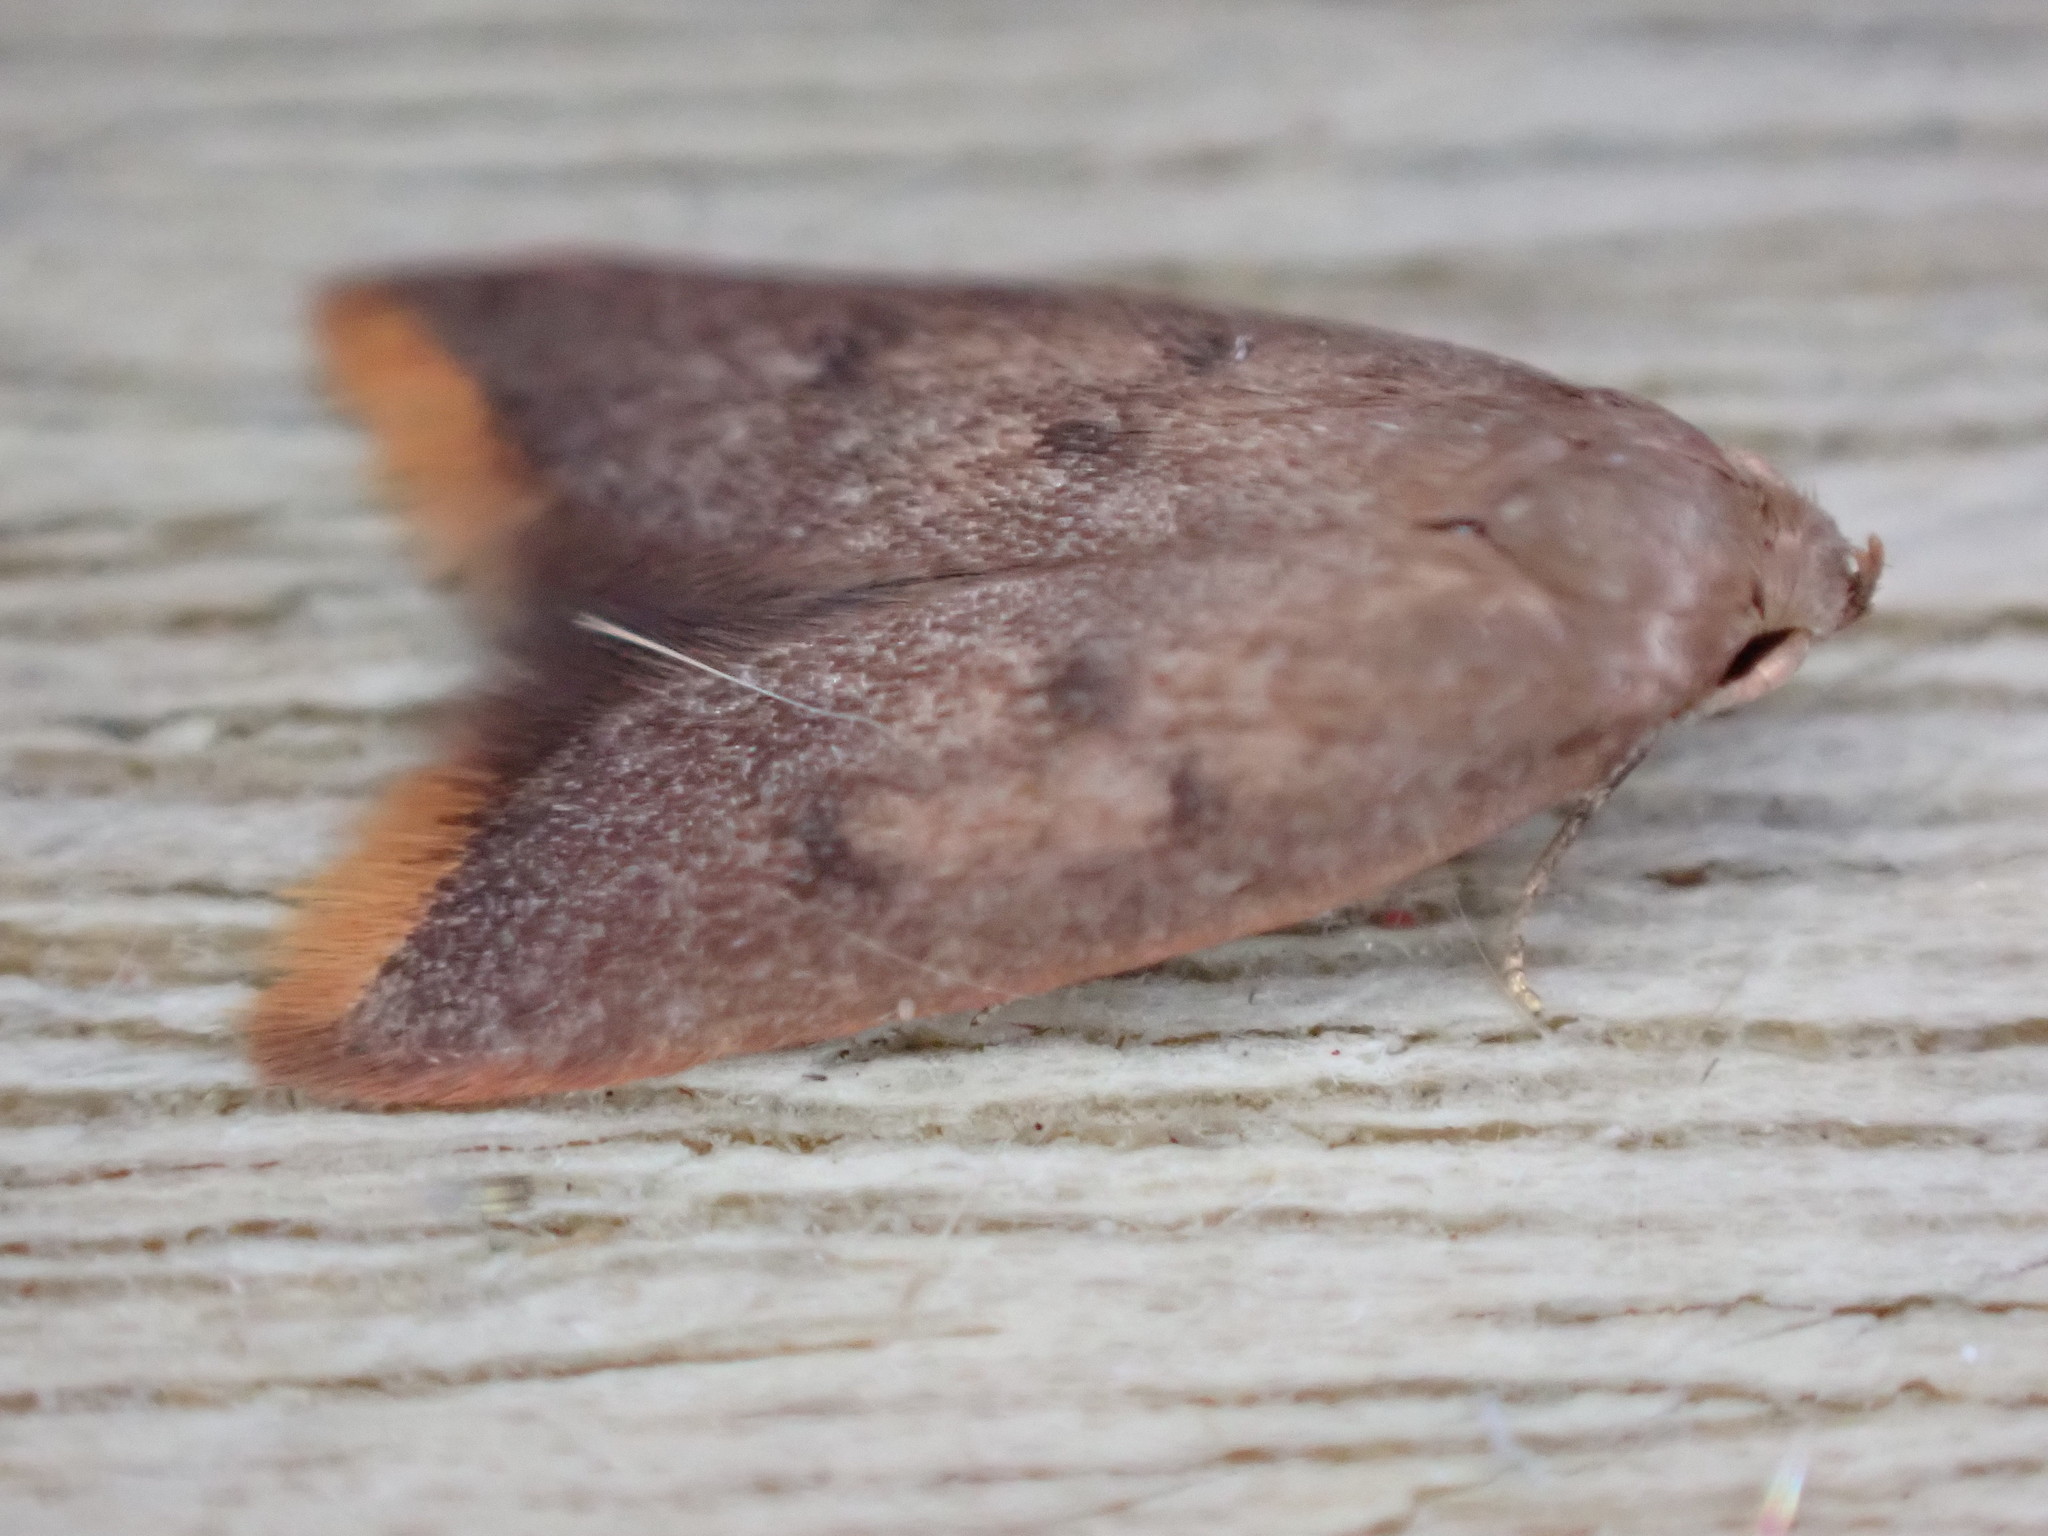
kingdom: Animalia
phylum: Arthropoda
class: Insecta
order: Lepidoptera
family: Oecophoridae
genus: Tachystola
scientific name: Tachystola acroxantha
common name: Ruddy streak
